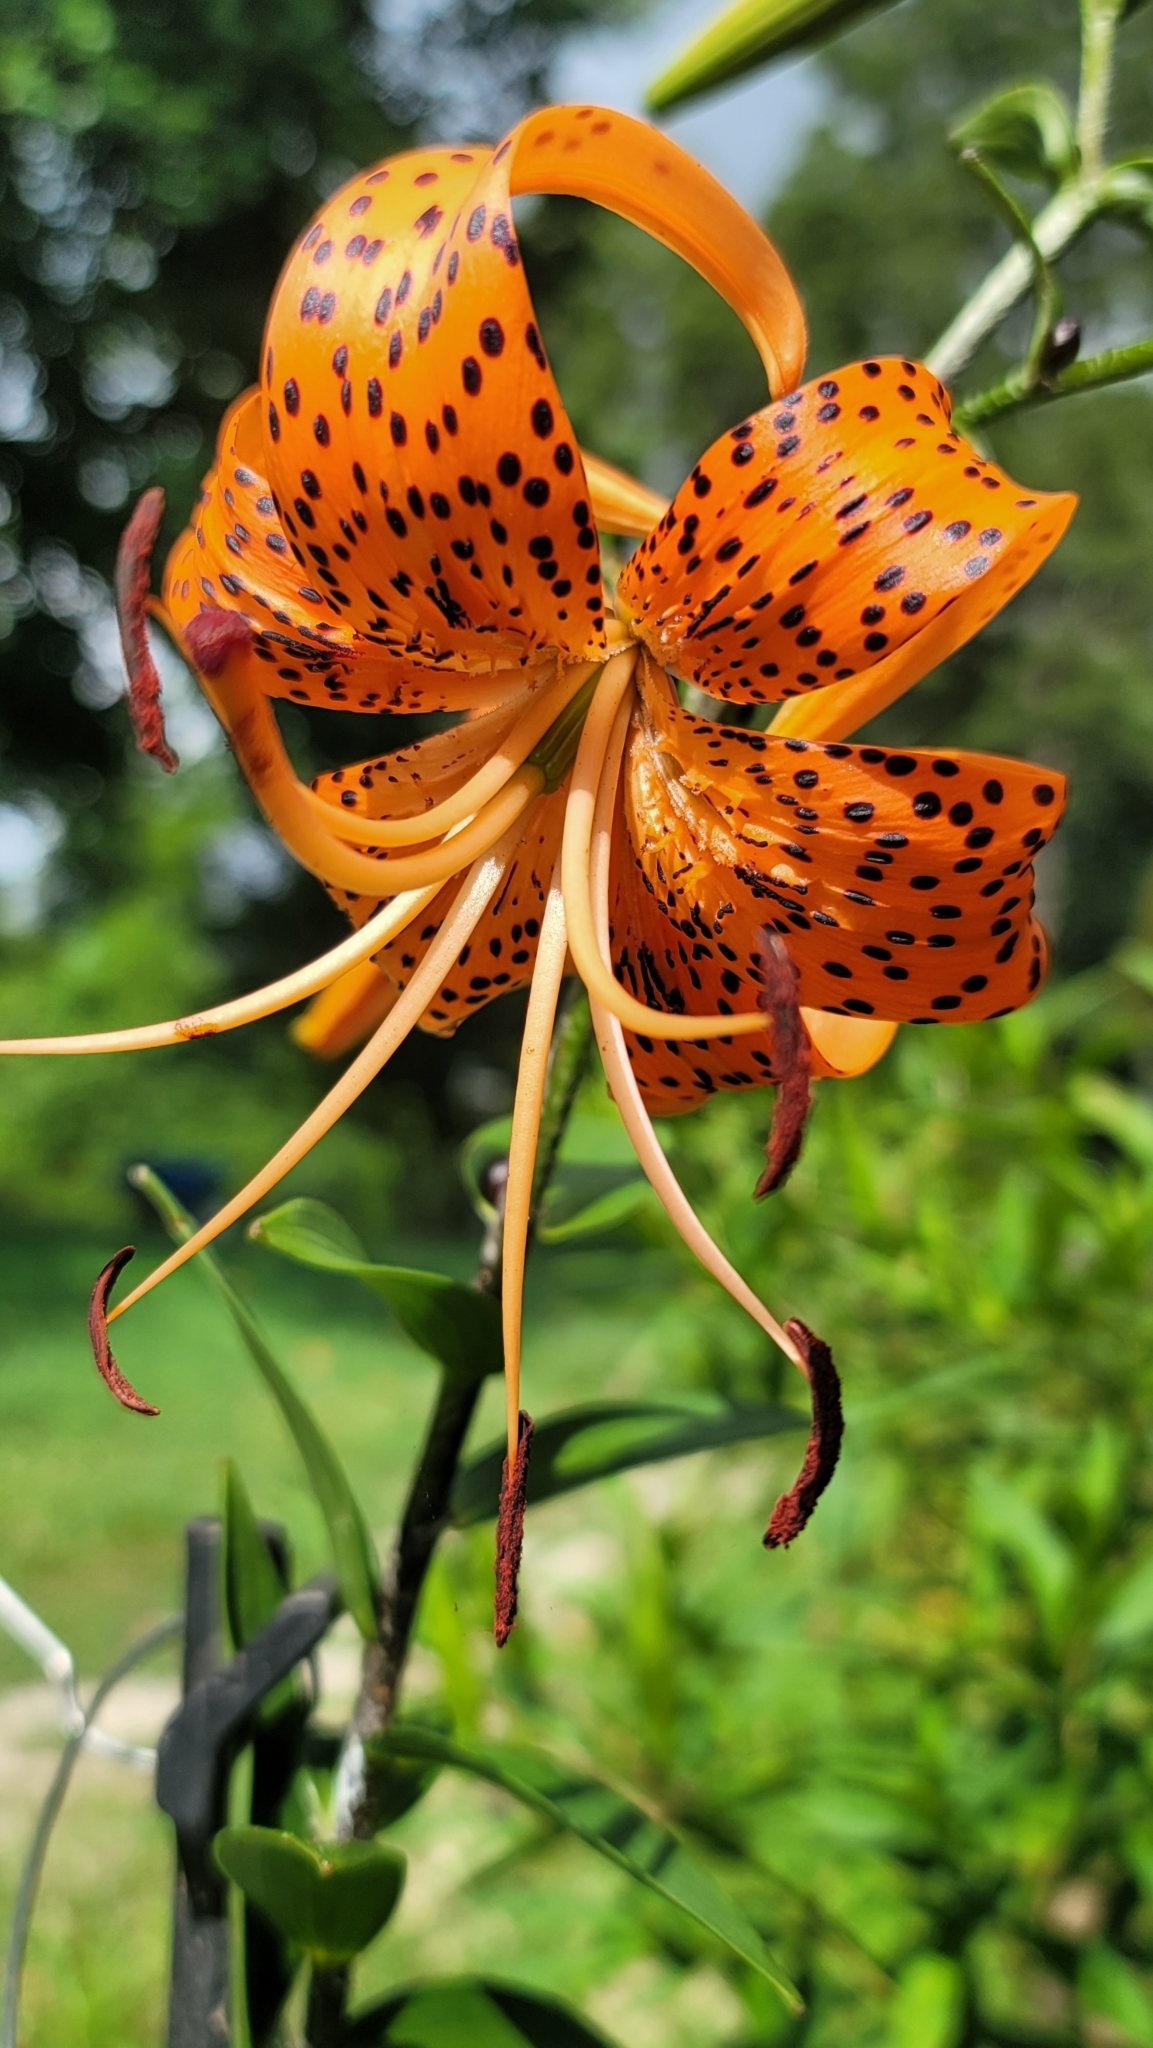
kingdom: Plantae
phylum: Tracheophyta
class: Liliopsida
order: Liliales
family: Liliaceae
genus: Lilium
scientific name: Lilium lancifolium
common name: Tiger lily
